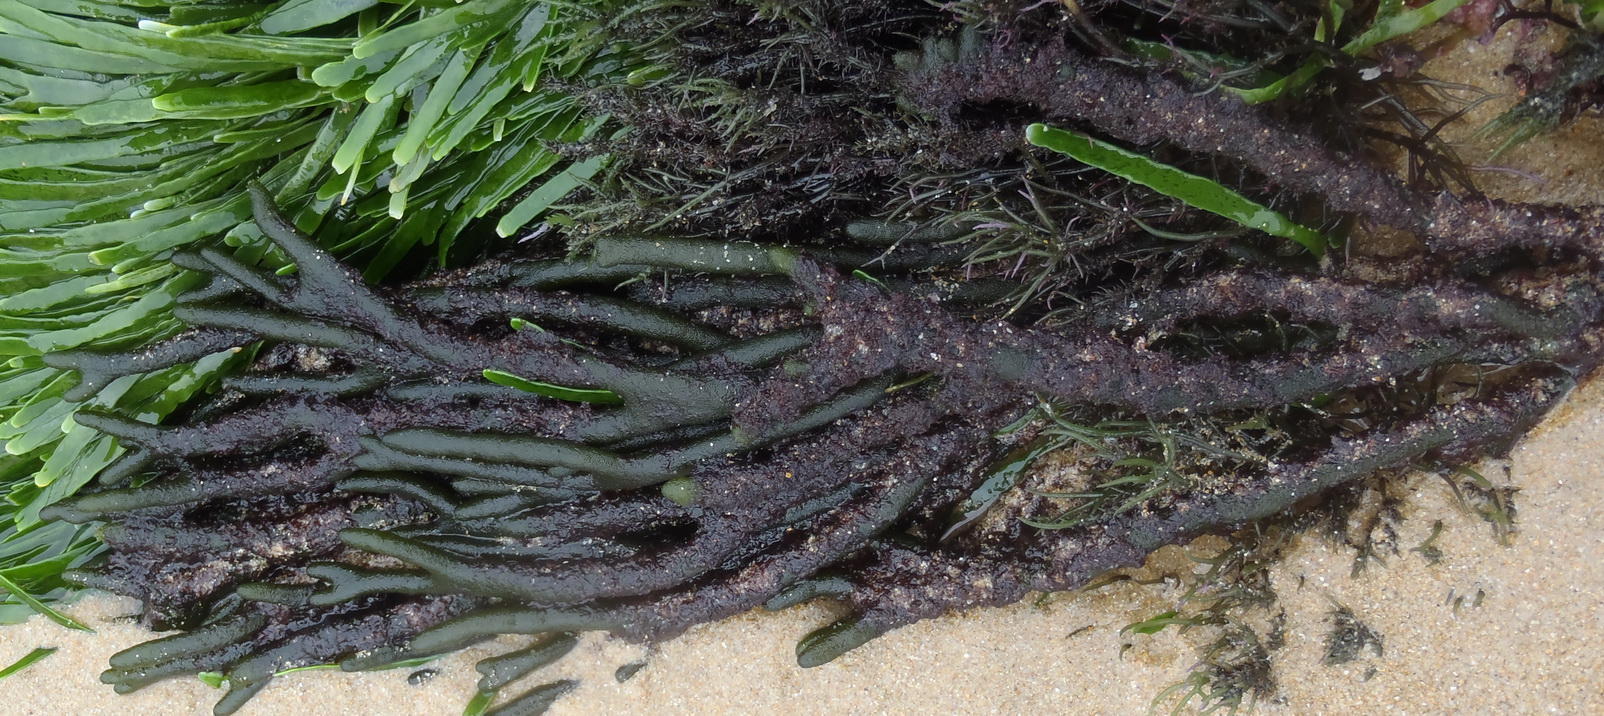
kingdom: Plantae
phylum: Chlorophyta
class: Ulvophyceae
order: Bryopsidales
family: Codiaceae
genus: Codium
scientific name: Codium fragile
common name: Dead man's fingers
